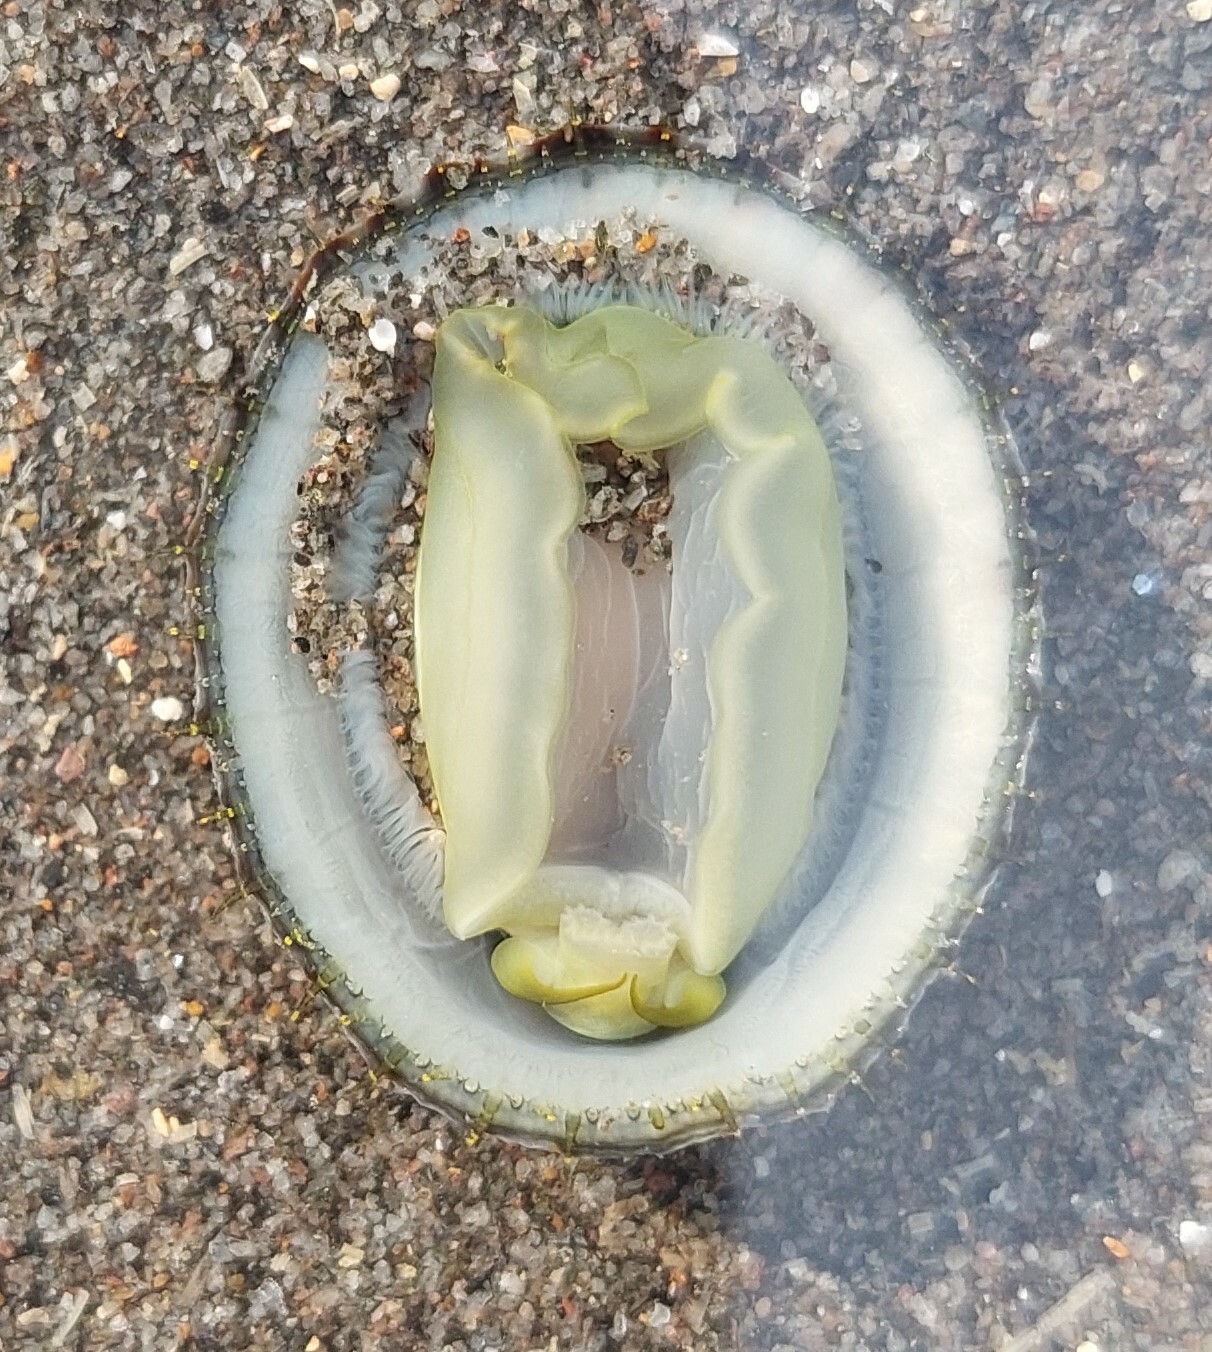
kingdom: Animalia
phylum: Mollusca
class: Gastropoda
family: Nacellidae
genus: Cellana
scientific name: Cellana radians
